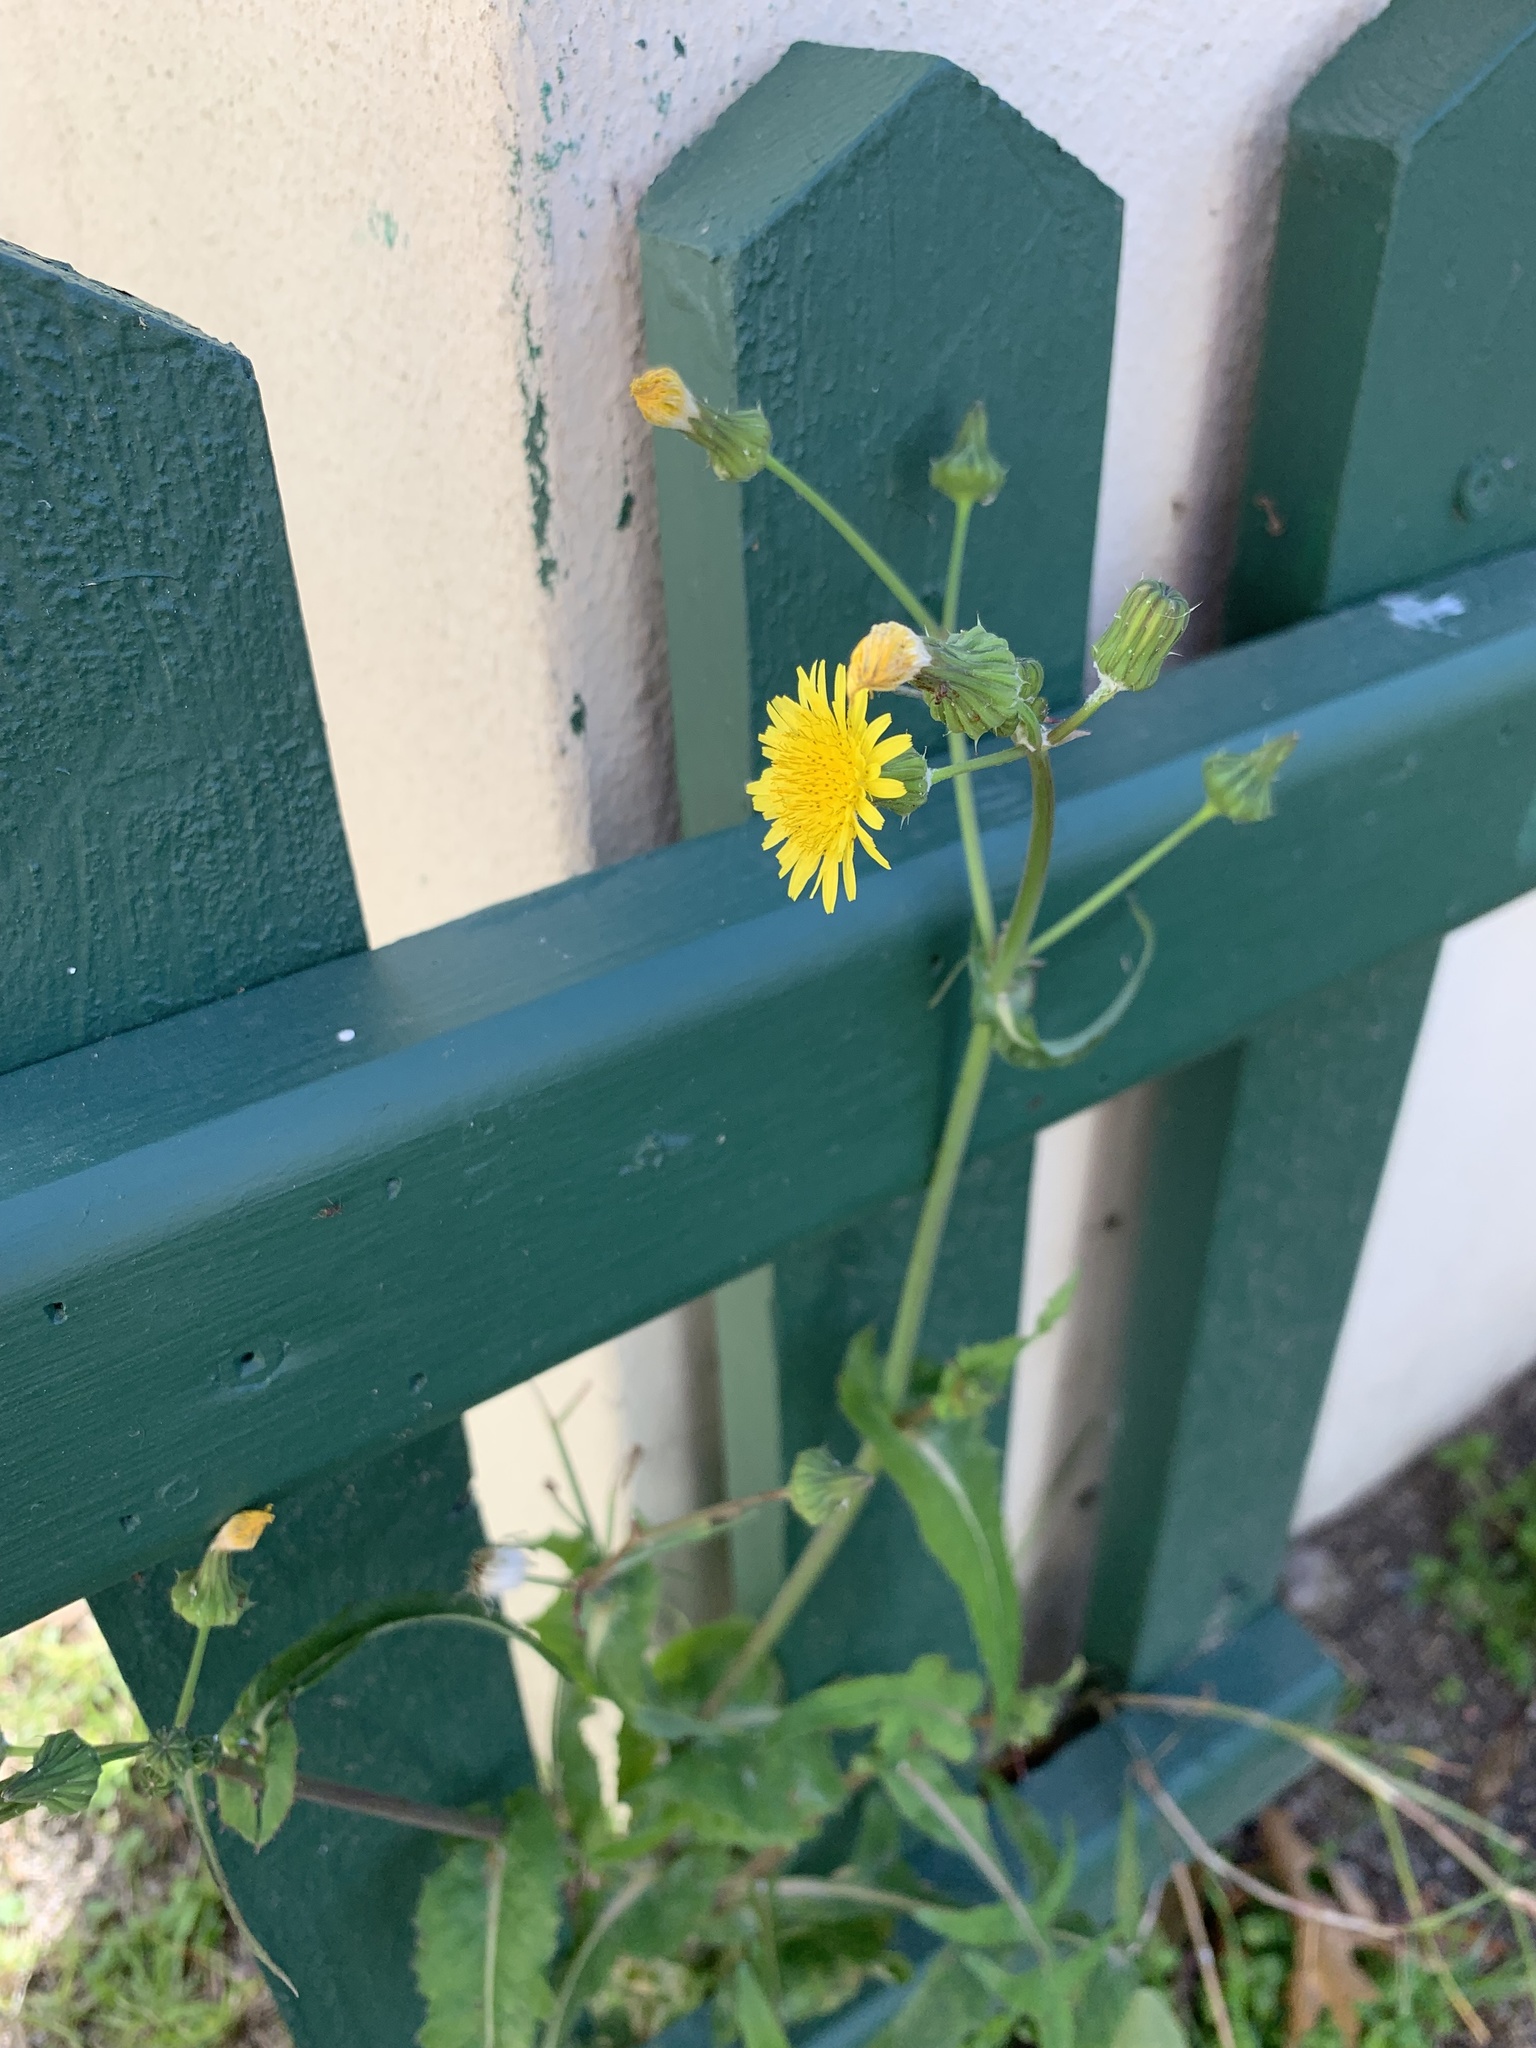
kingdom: Plantae
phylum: Tracheophyta
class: Magnoliopsida
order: Asterales
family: Asteraceae
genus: Sonchus
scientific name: Sonchus oleraceus
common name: Common sowthistle
